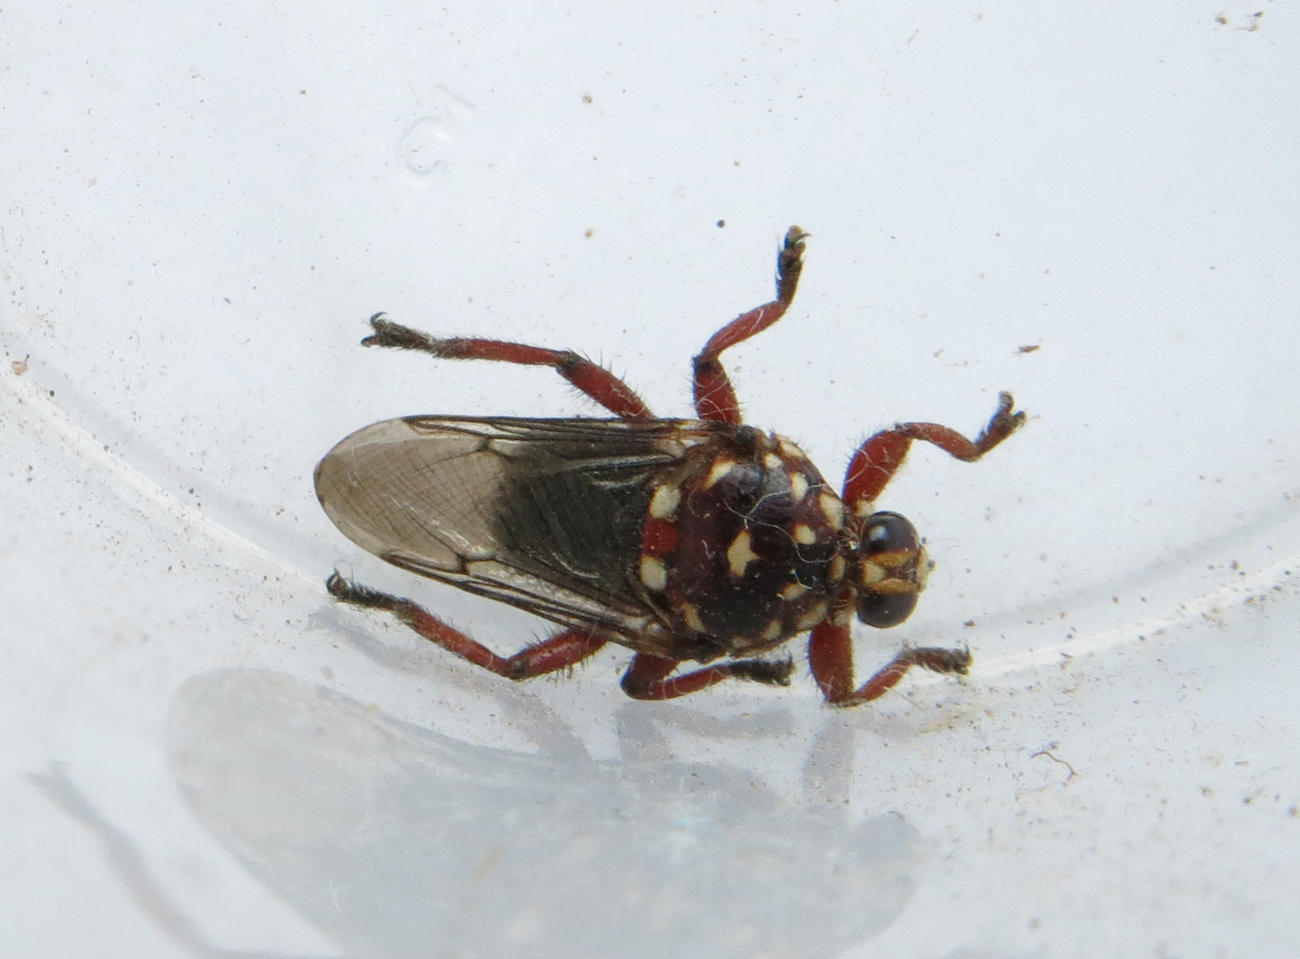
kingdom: Animalia
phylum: Arthropoda
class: Insecta
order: Diptera
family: Hippoboscidae
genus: Hippobosca
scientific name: Hippobosca rufipes
